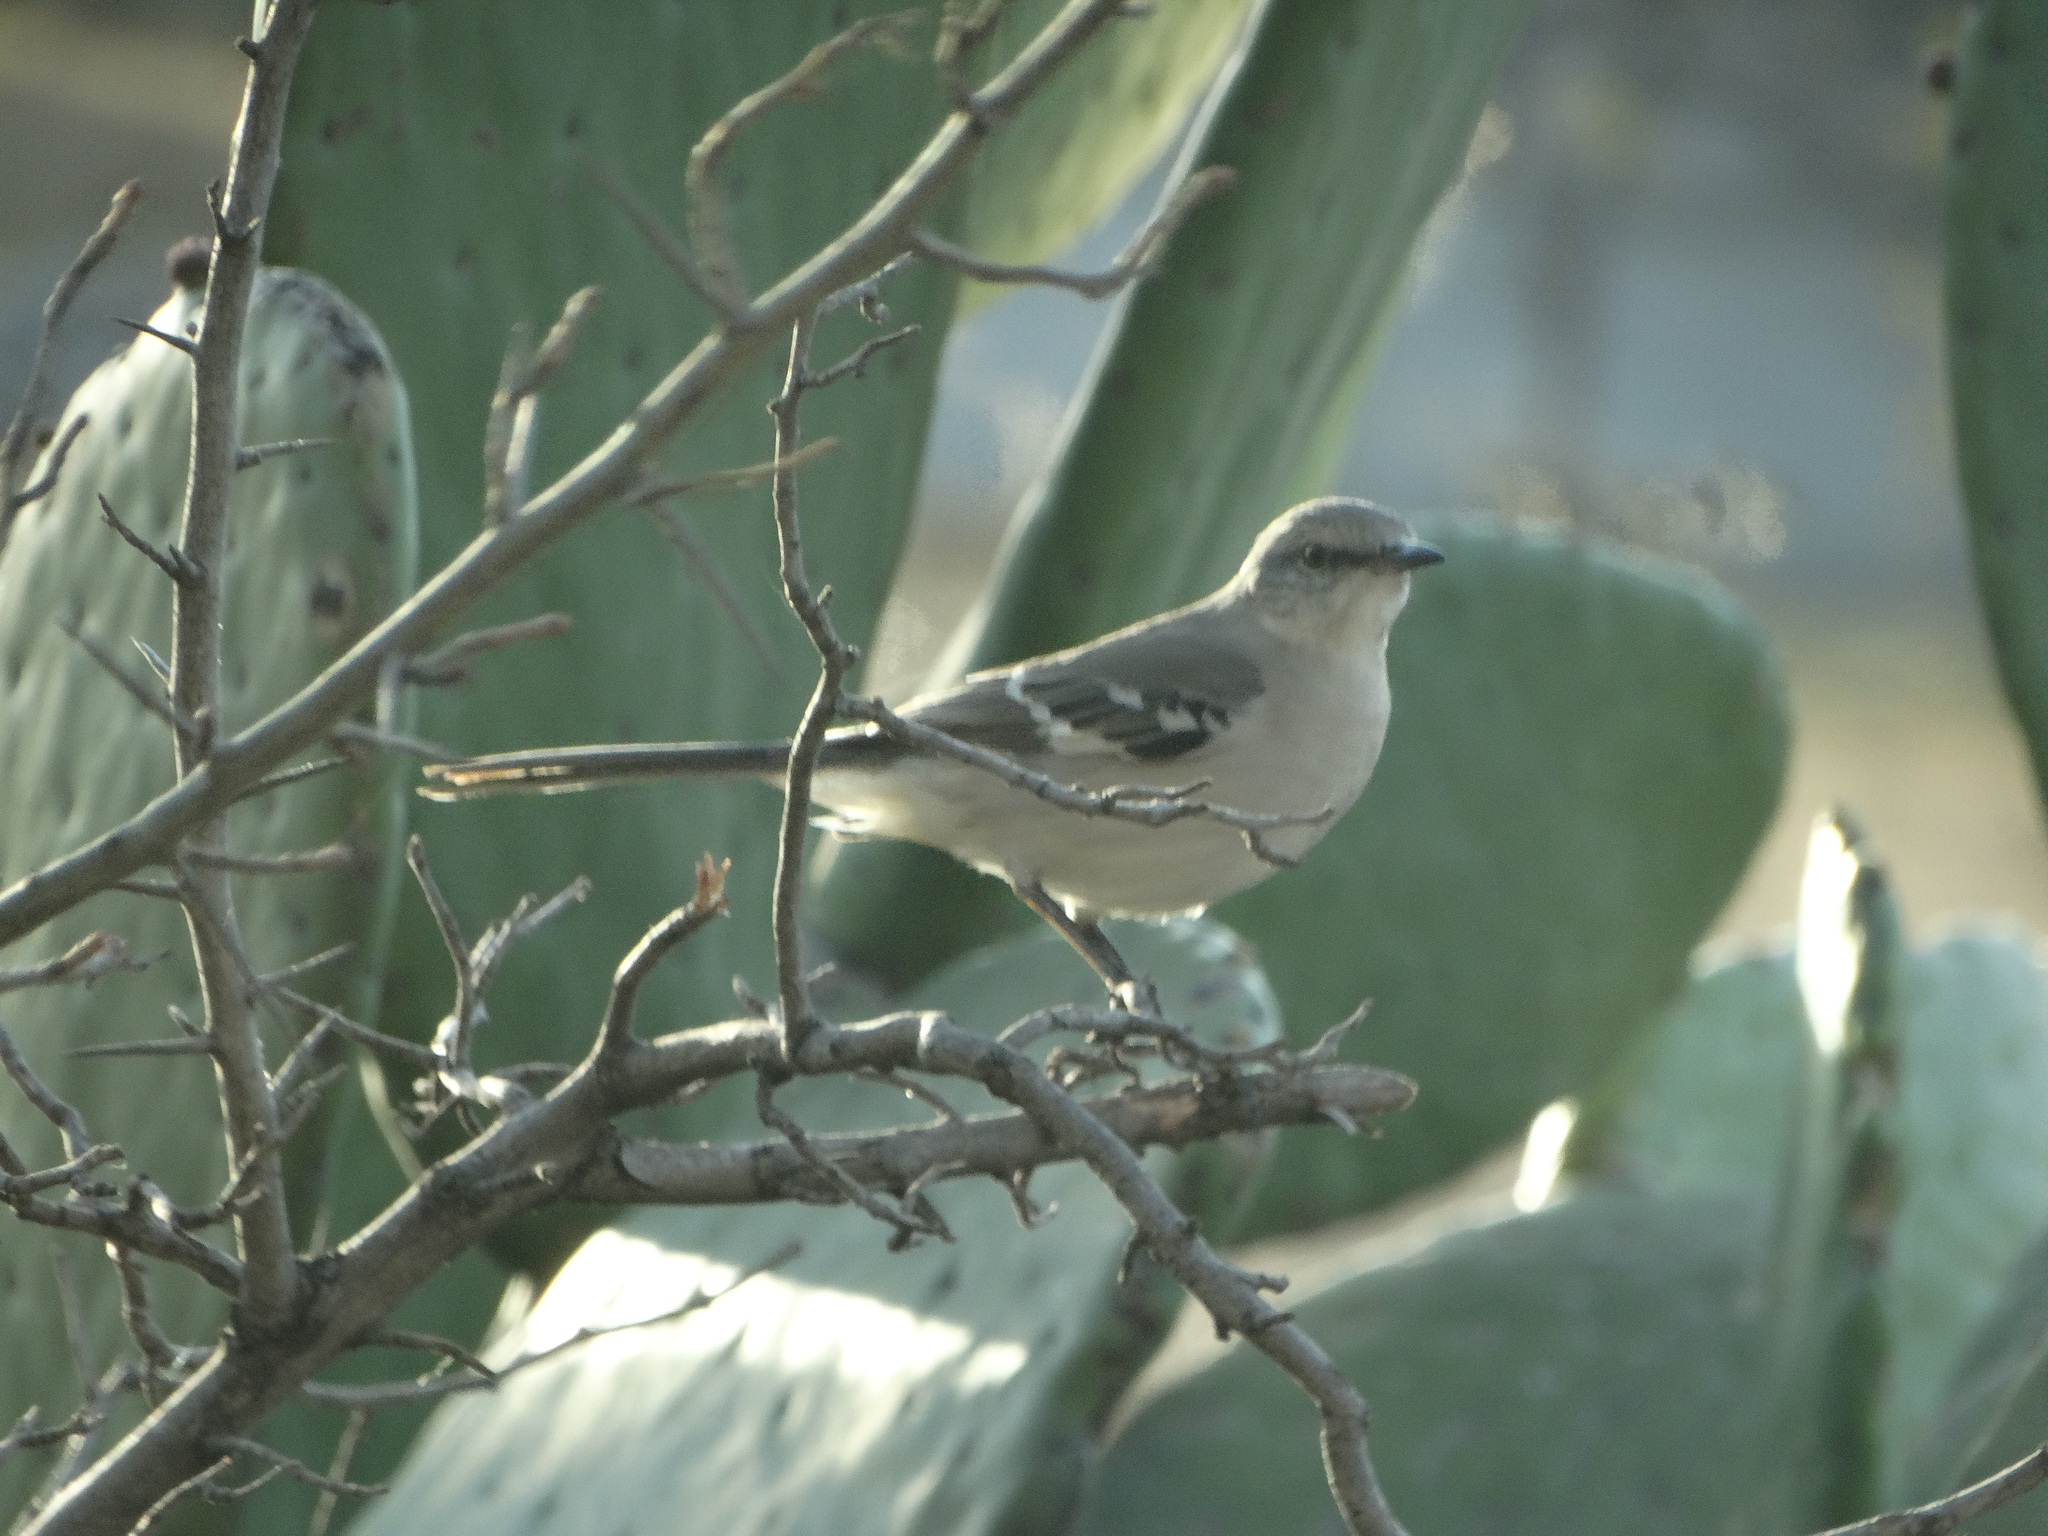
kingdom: Animalia
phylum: Chordata
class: Aves
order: Passeriformes
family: Mimidae
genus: Mimus
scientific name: Mimus polyglottos
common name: Northern mockingbird
